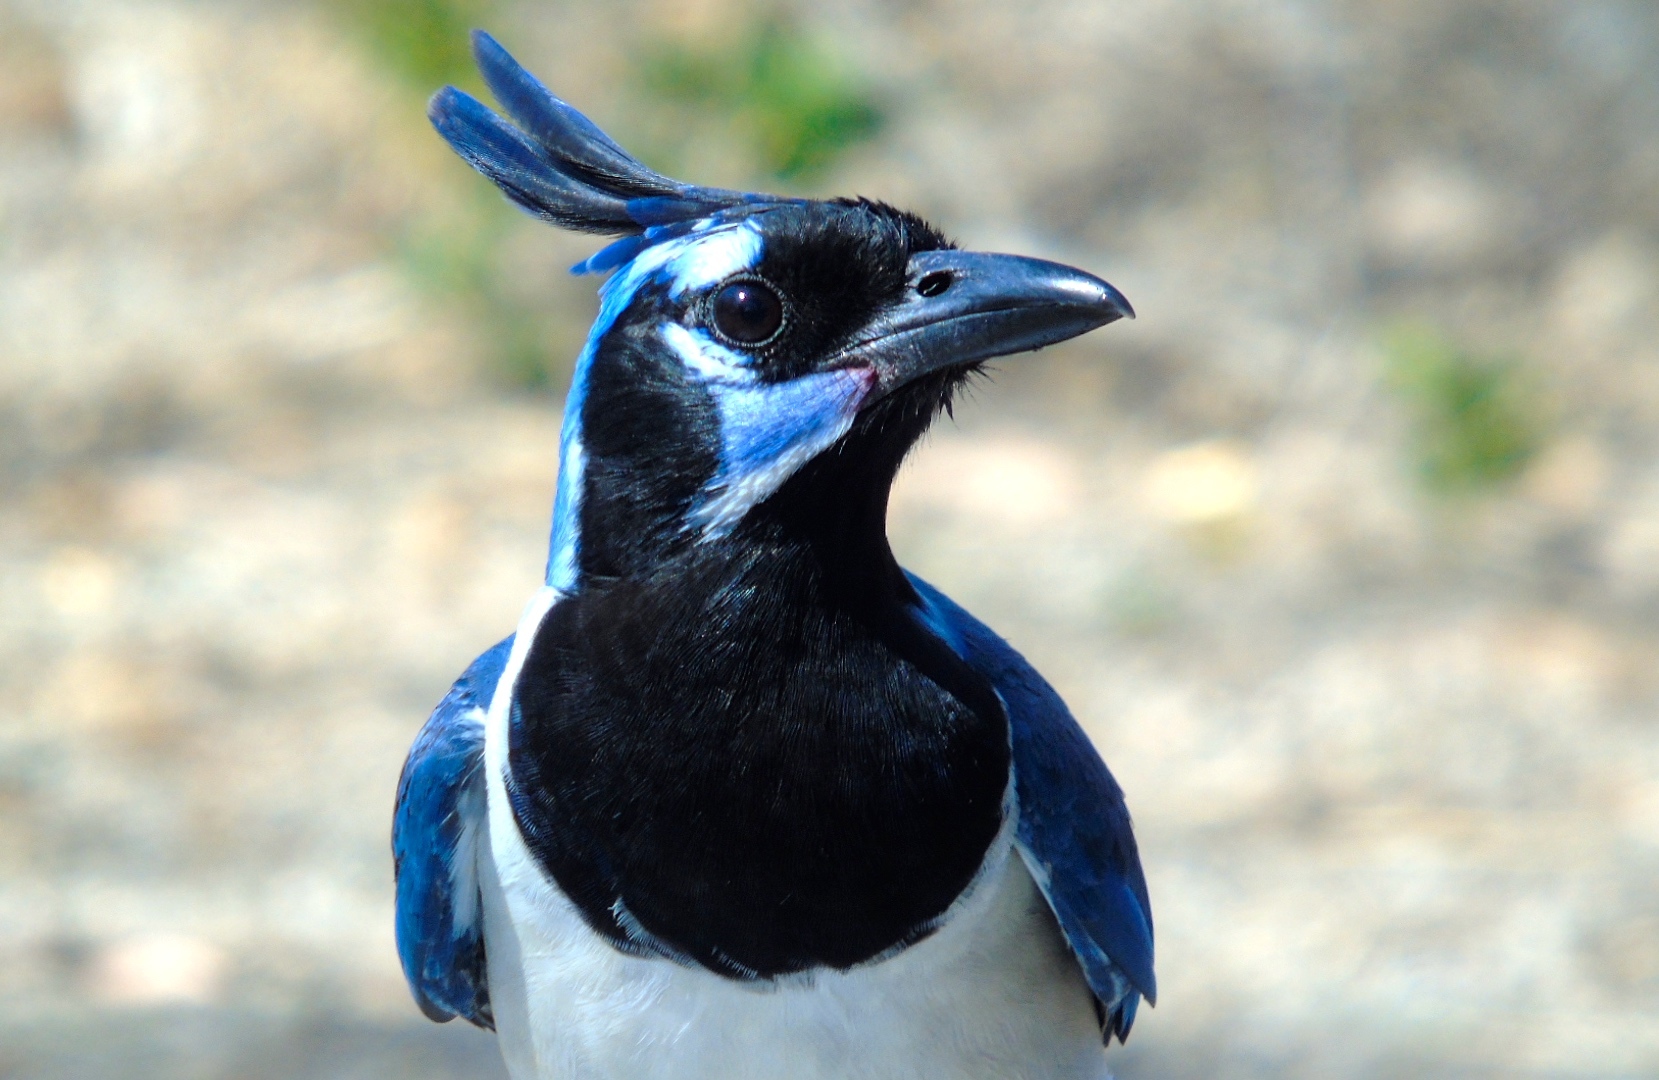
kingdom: Animalia
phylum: Chordata
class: Aves
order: Passeriformes
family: Corvidae
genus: Calocitta
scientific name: Calocitta colliei
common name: Black-throated magpie-jay
